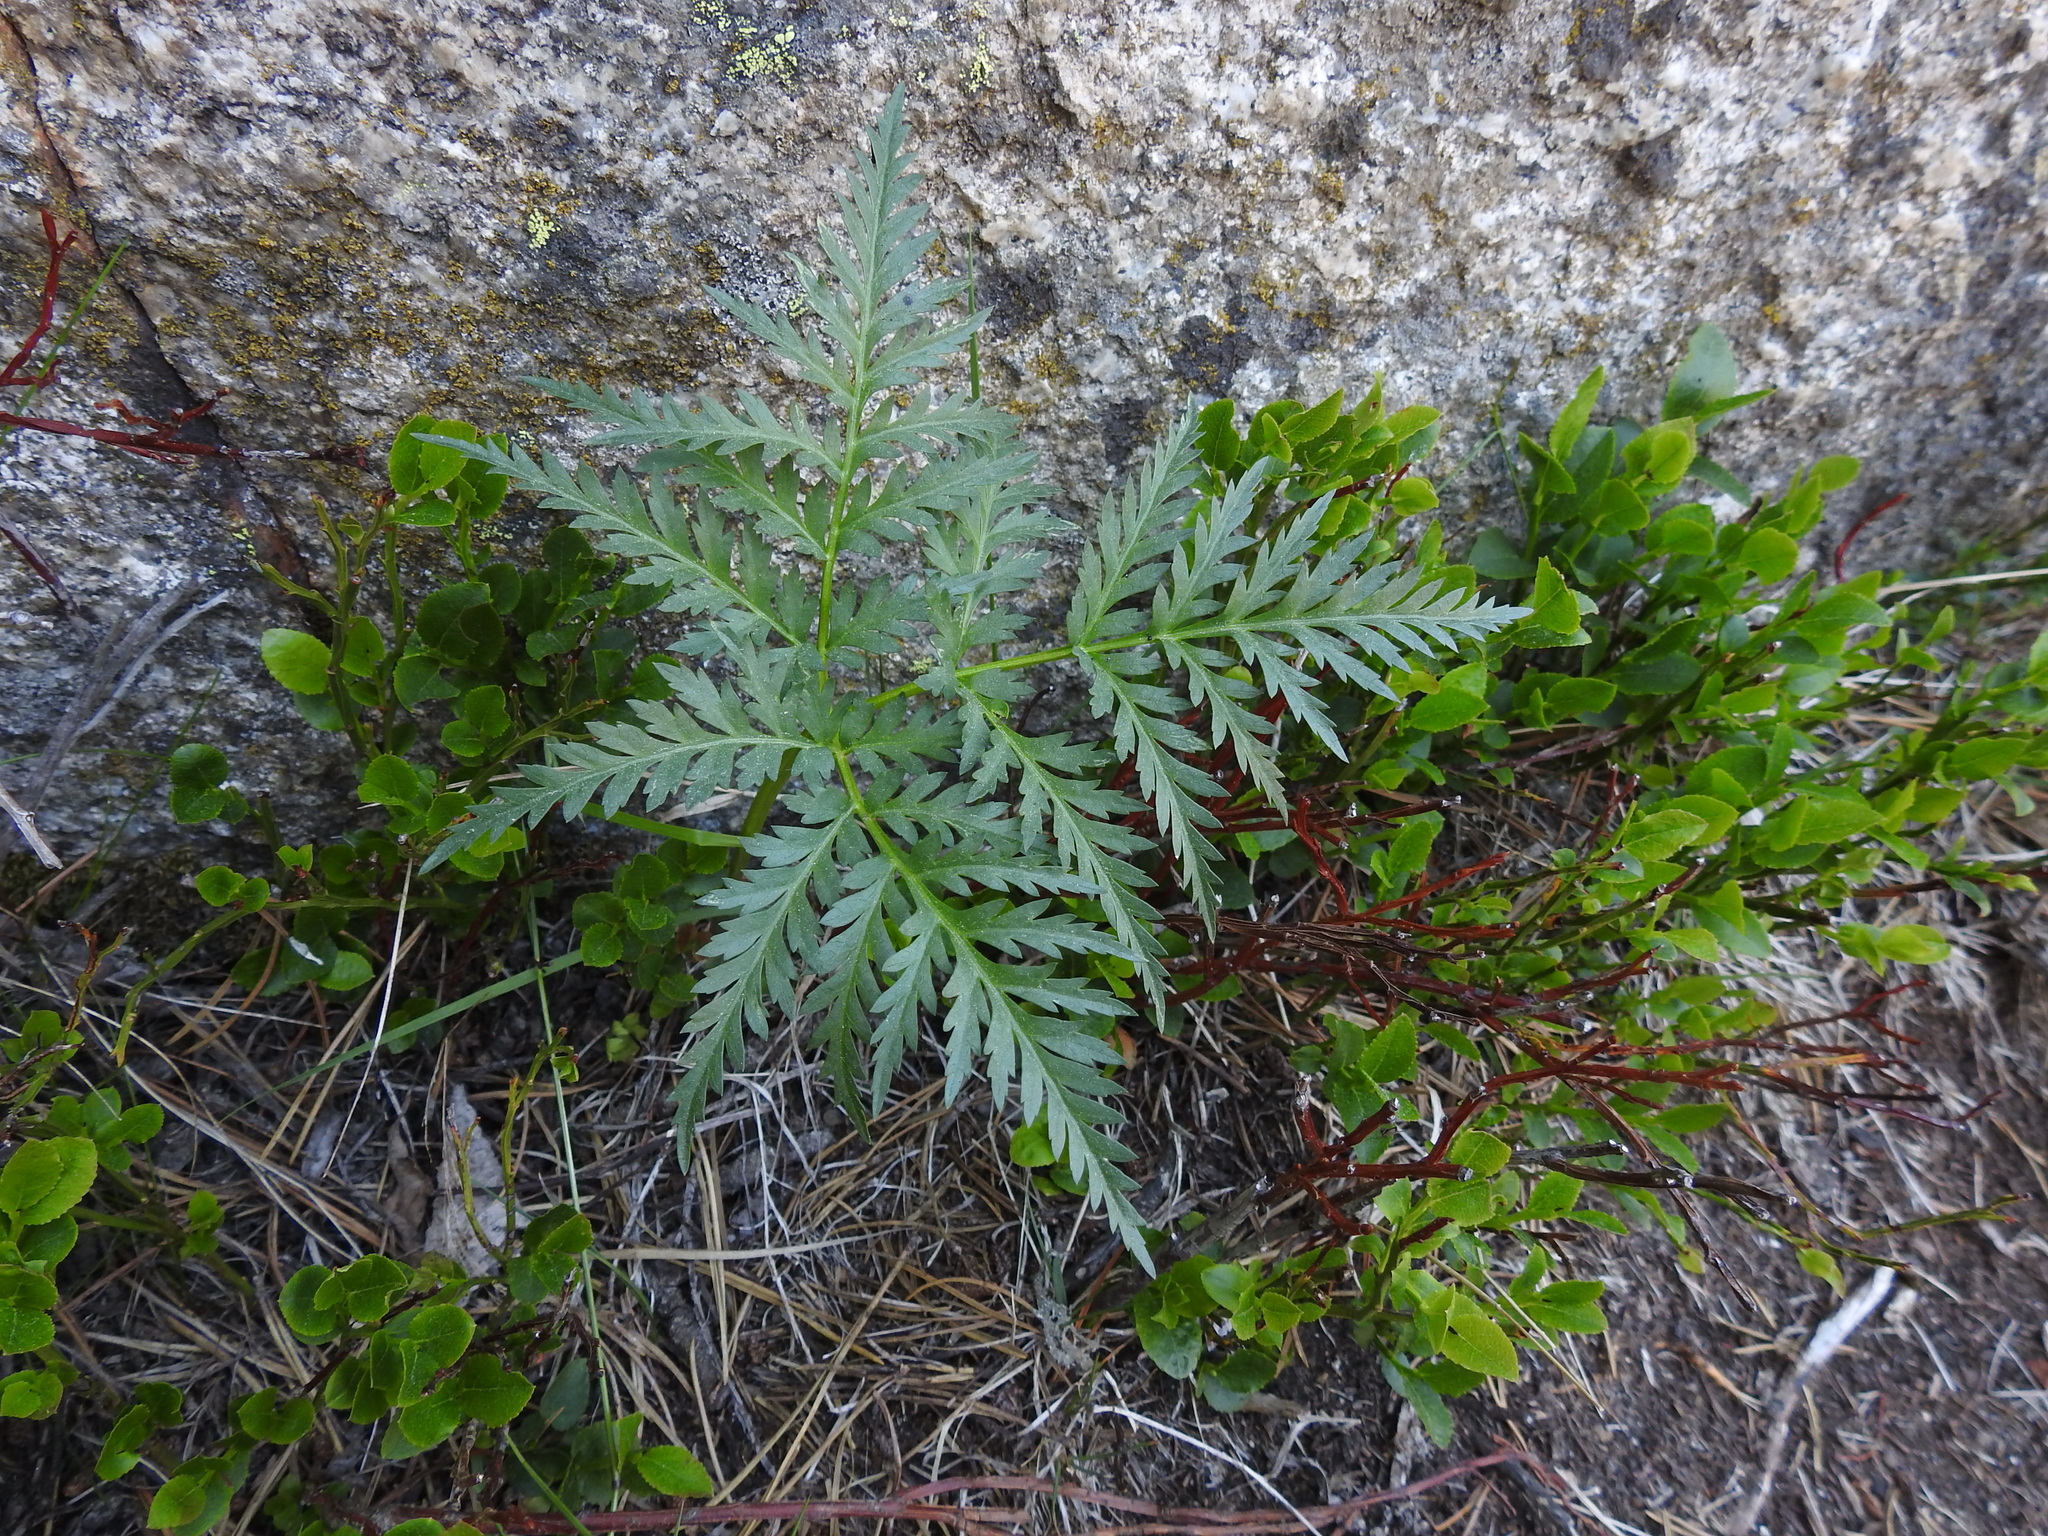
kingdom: Plantae
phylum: Tracheophyta
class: Magnoliopsida
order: Apiales
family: Apiaceae
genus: Molopospermum
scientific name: Molopospermum peloponnesiacum
